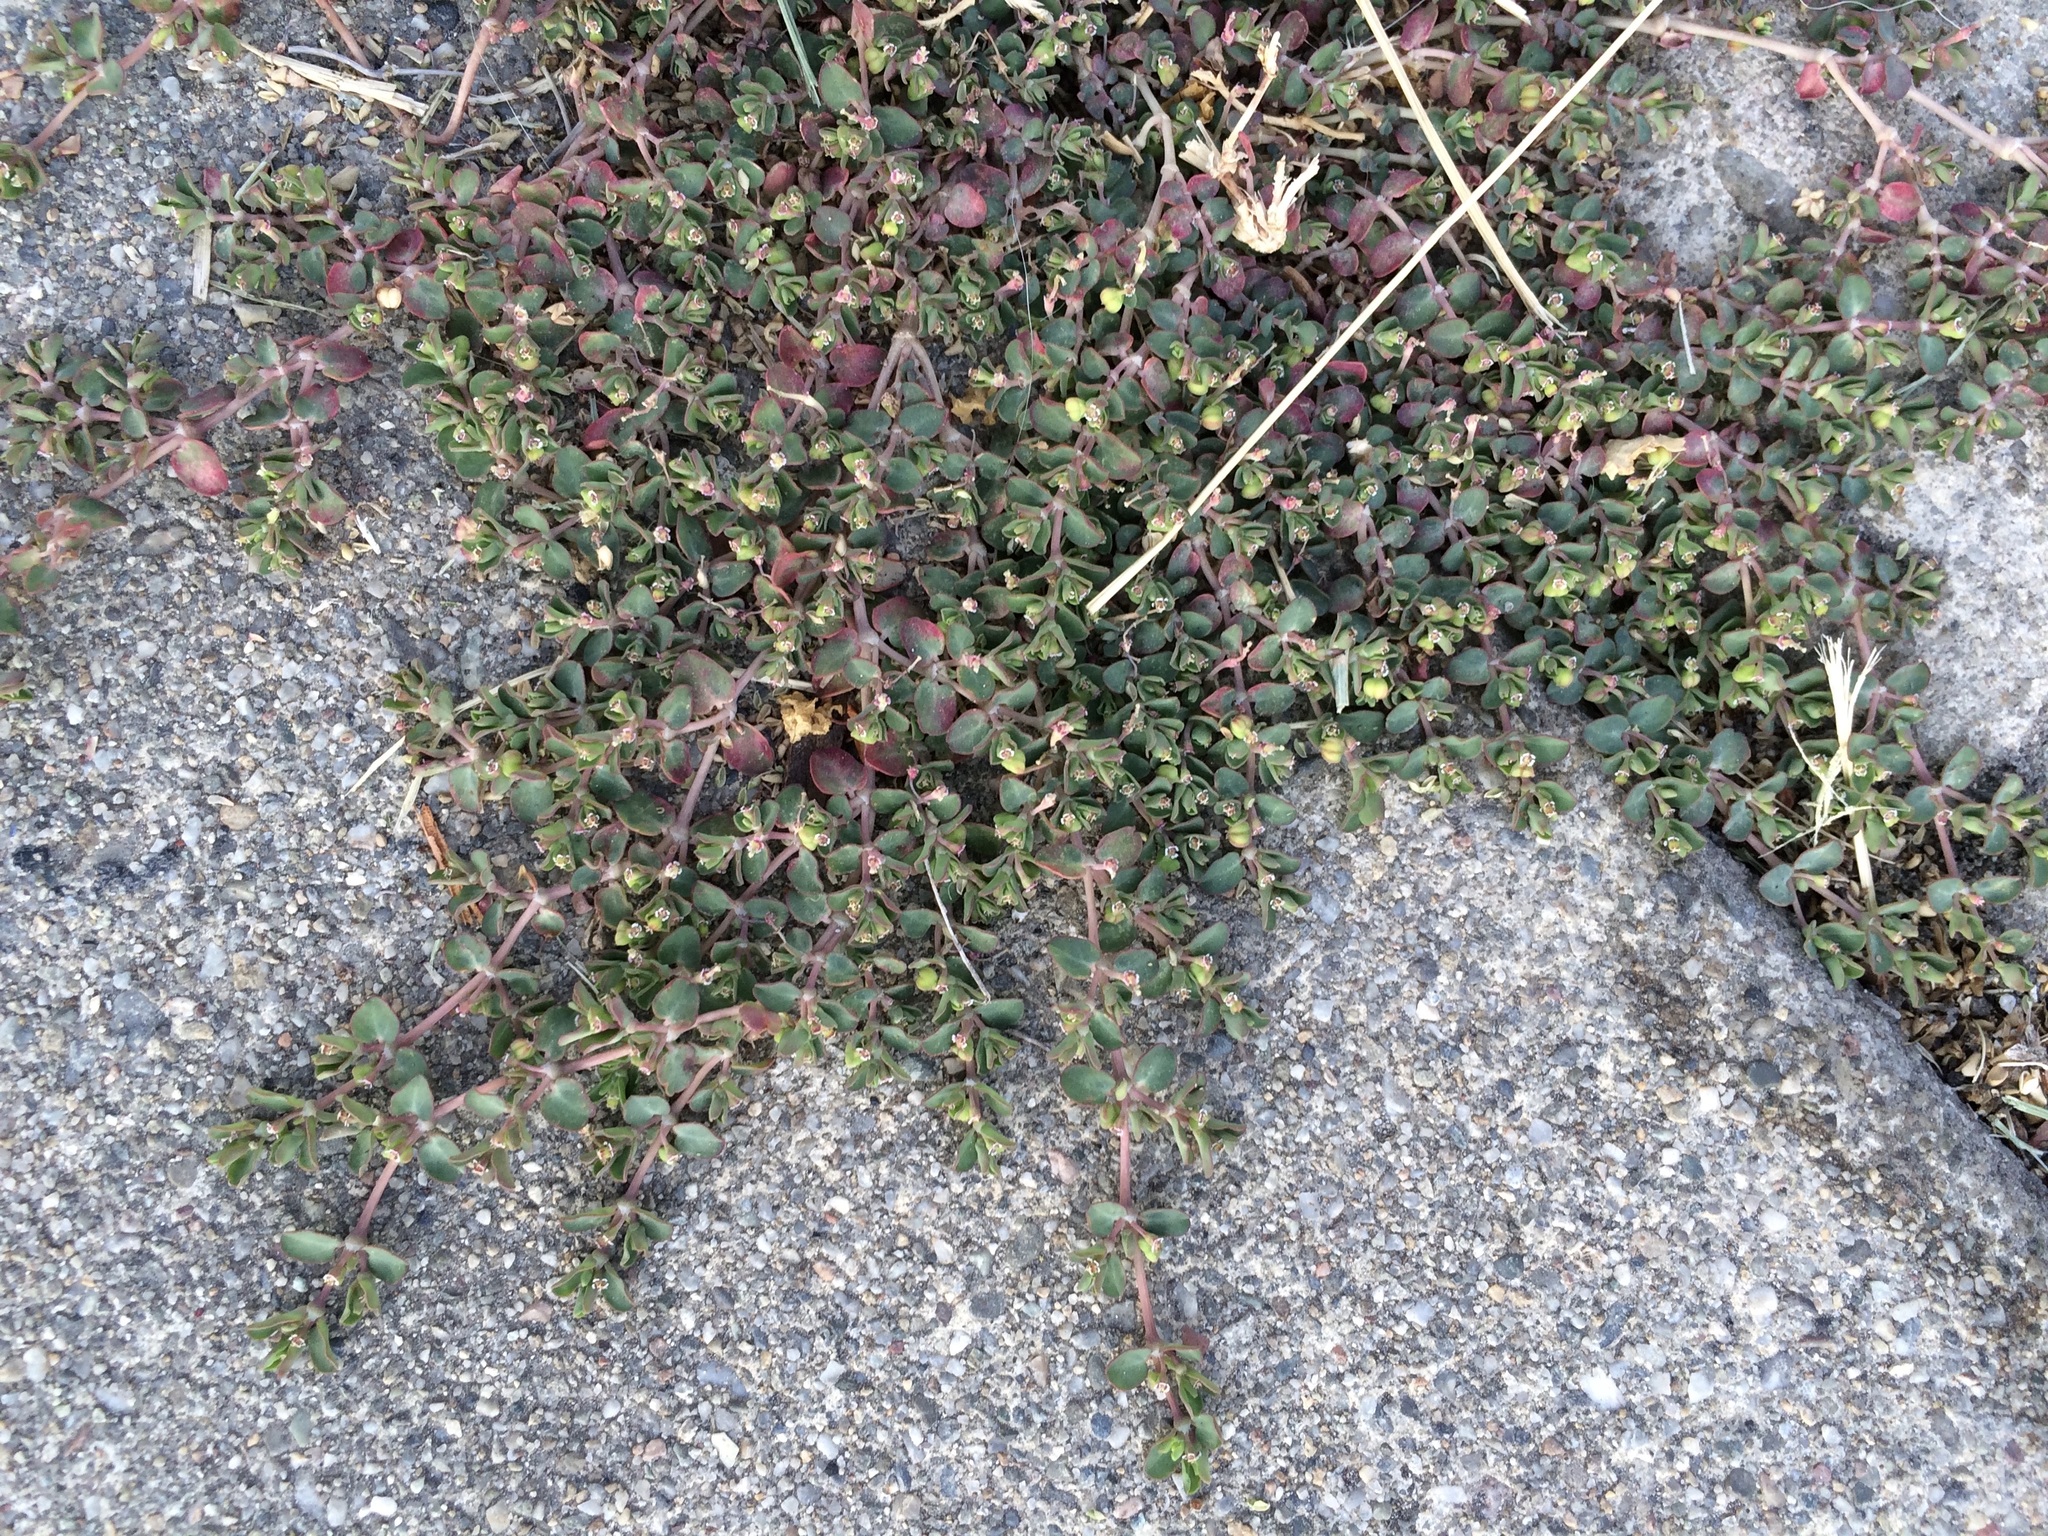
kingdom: Plantae
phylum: Tracheophyta
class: Magnoliopsida
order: Malpighiales
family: Euphorbiaceae
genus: Euphorbia
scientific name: Euphorbia serpens
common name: Matted sandmat
